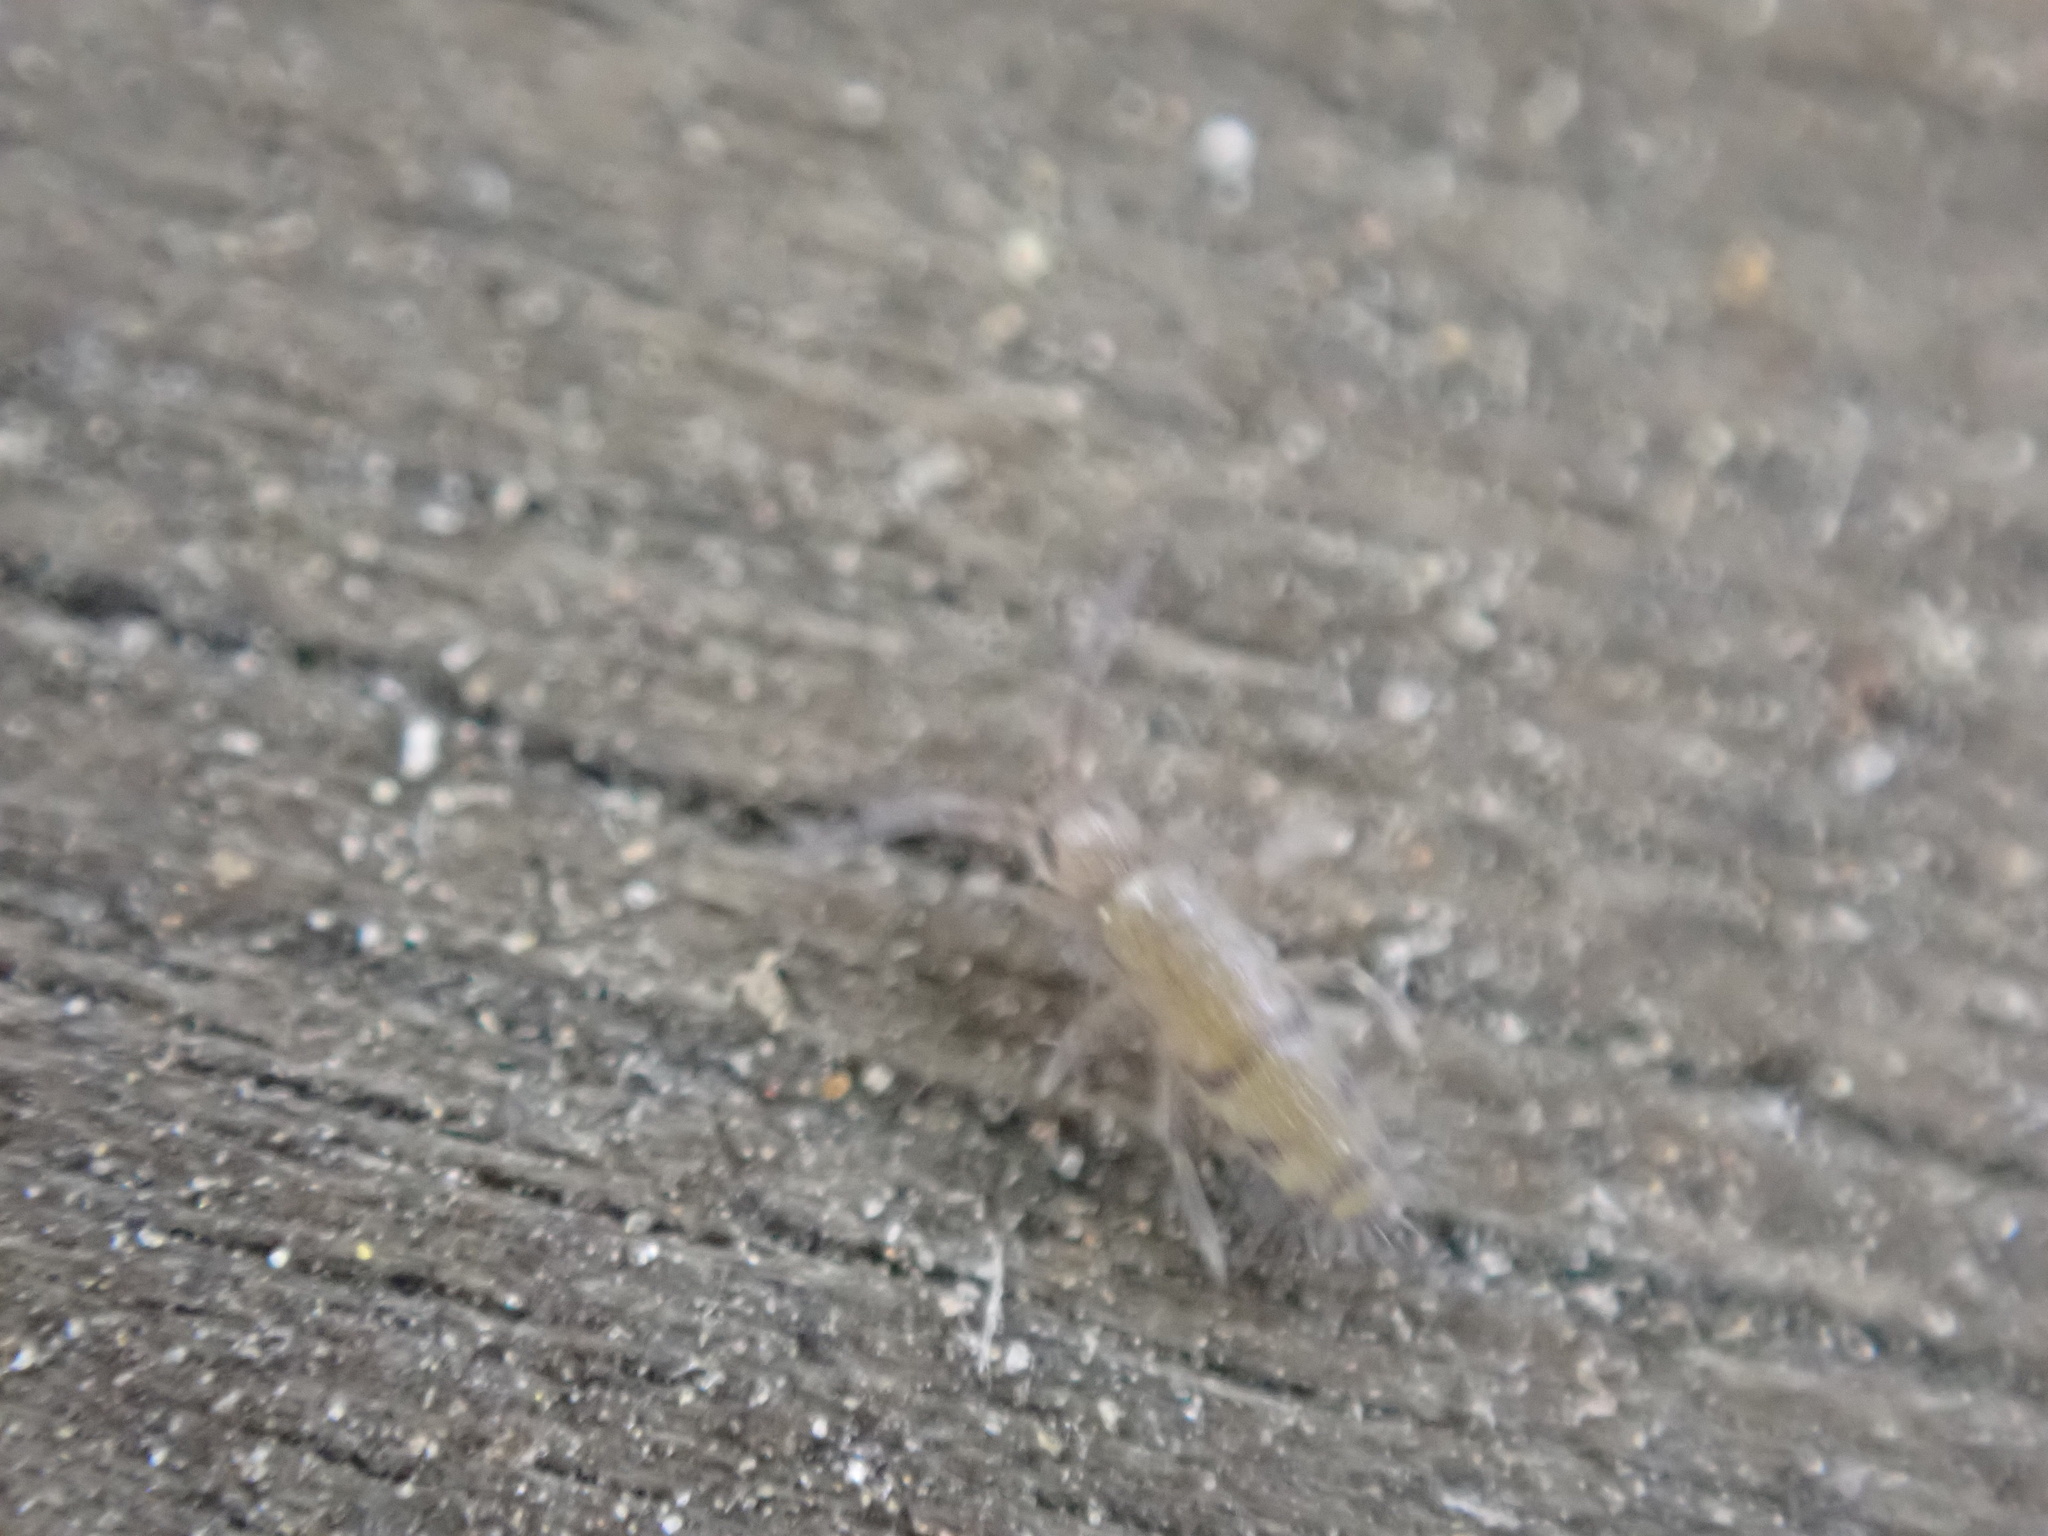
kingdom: Animalia
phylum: Arthropoda
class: Collembola
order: Entomobryomorpha
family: Entomobryidae
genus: Willowsia
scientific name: Willowsia nigromaculata
